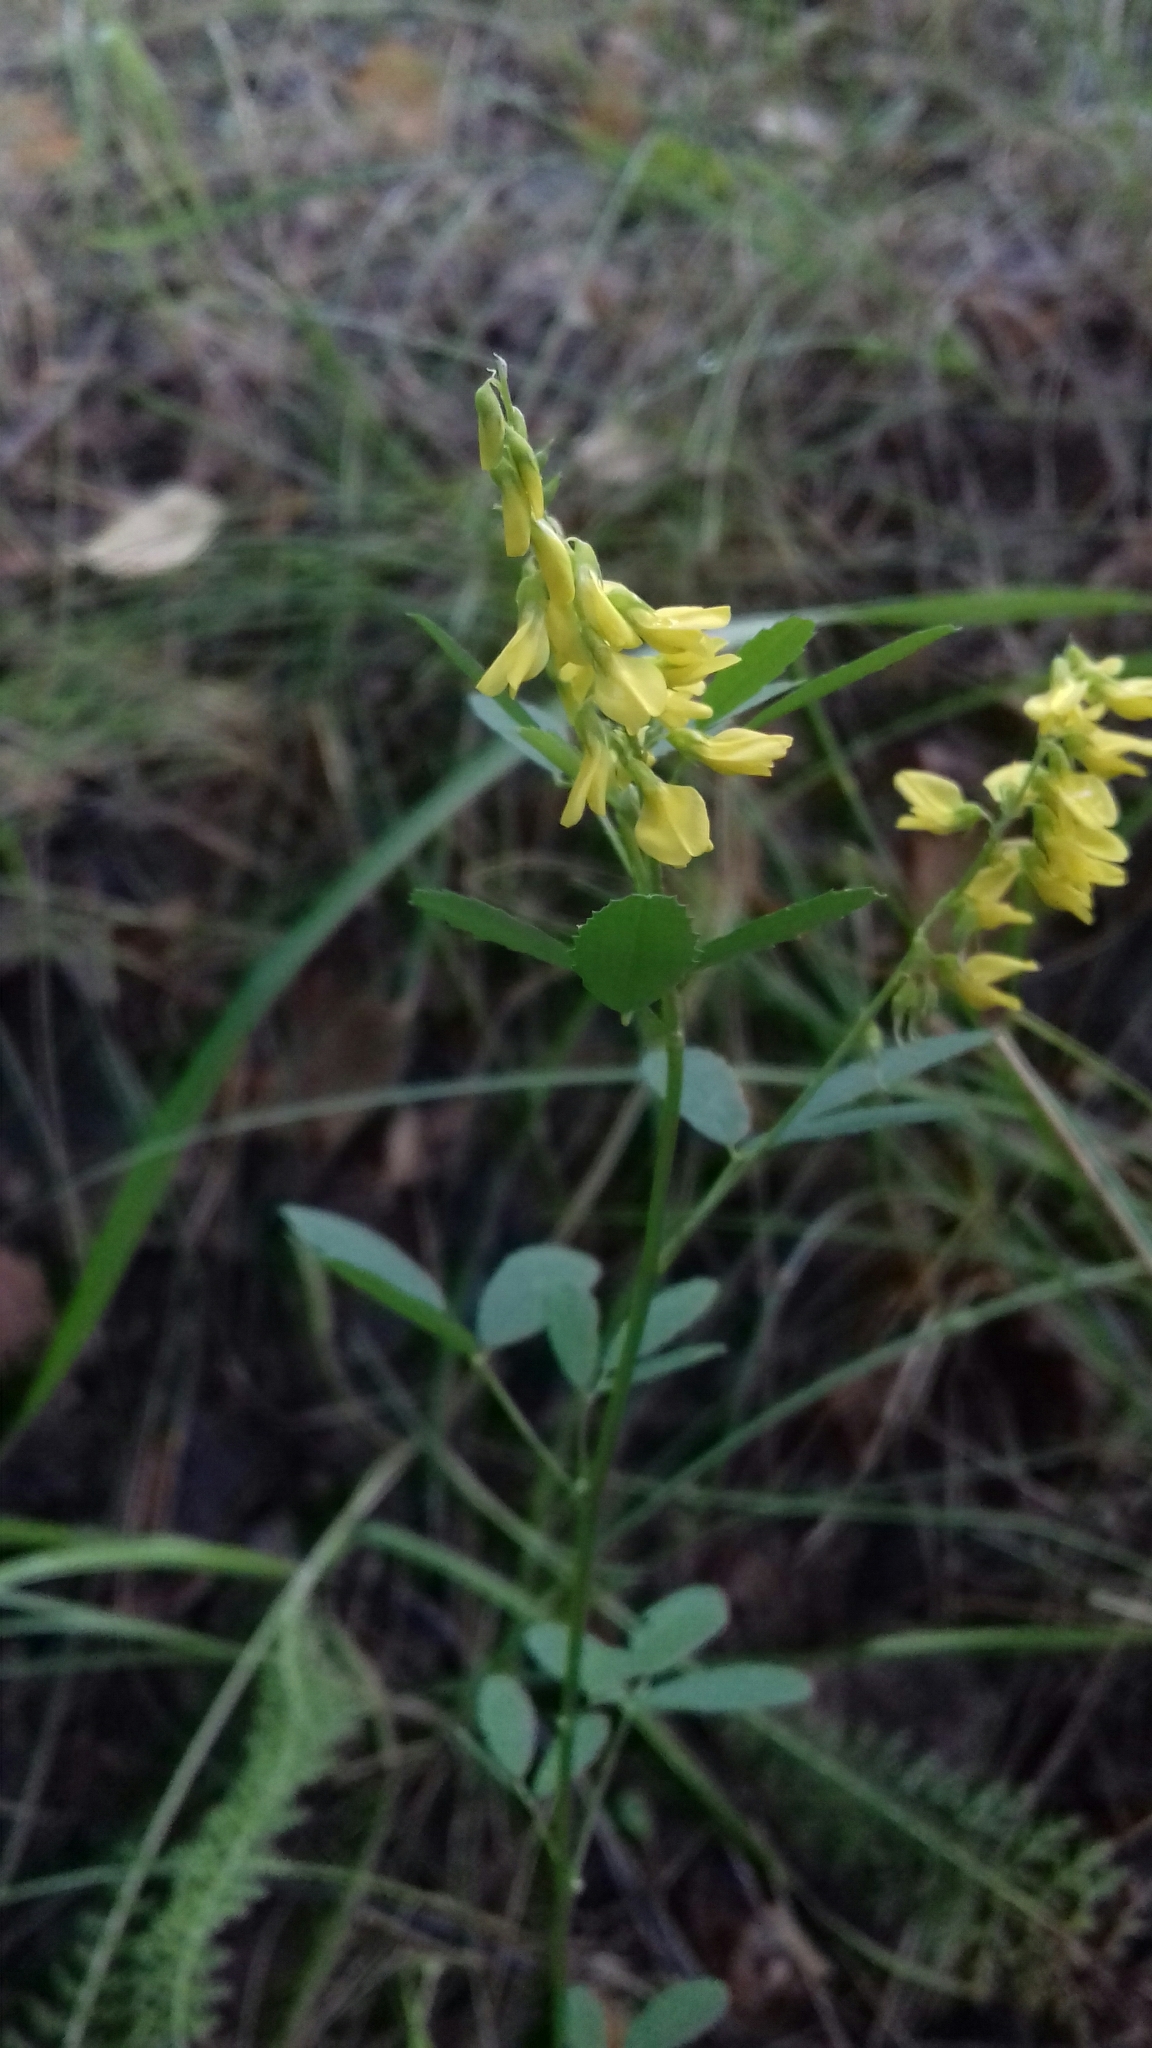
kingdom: Plantae
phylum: Tracheophyta
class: Magnoliopsida
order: Fabales
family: Fabaceae
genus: Melilotus
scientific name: Melilotus officinalis
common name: Sweetclover
